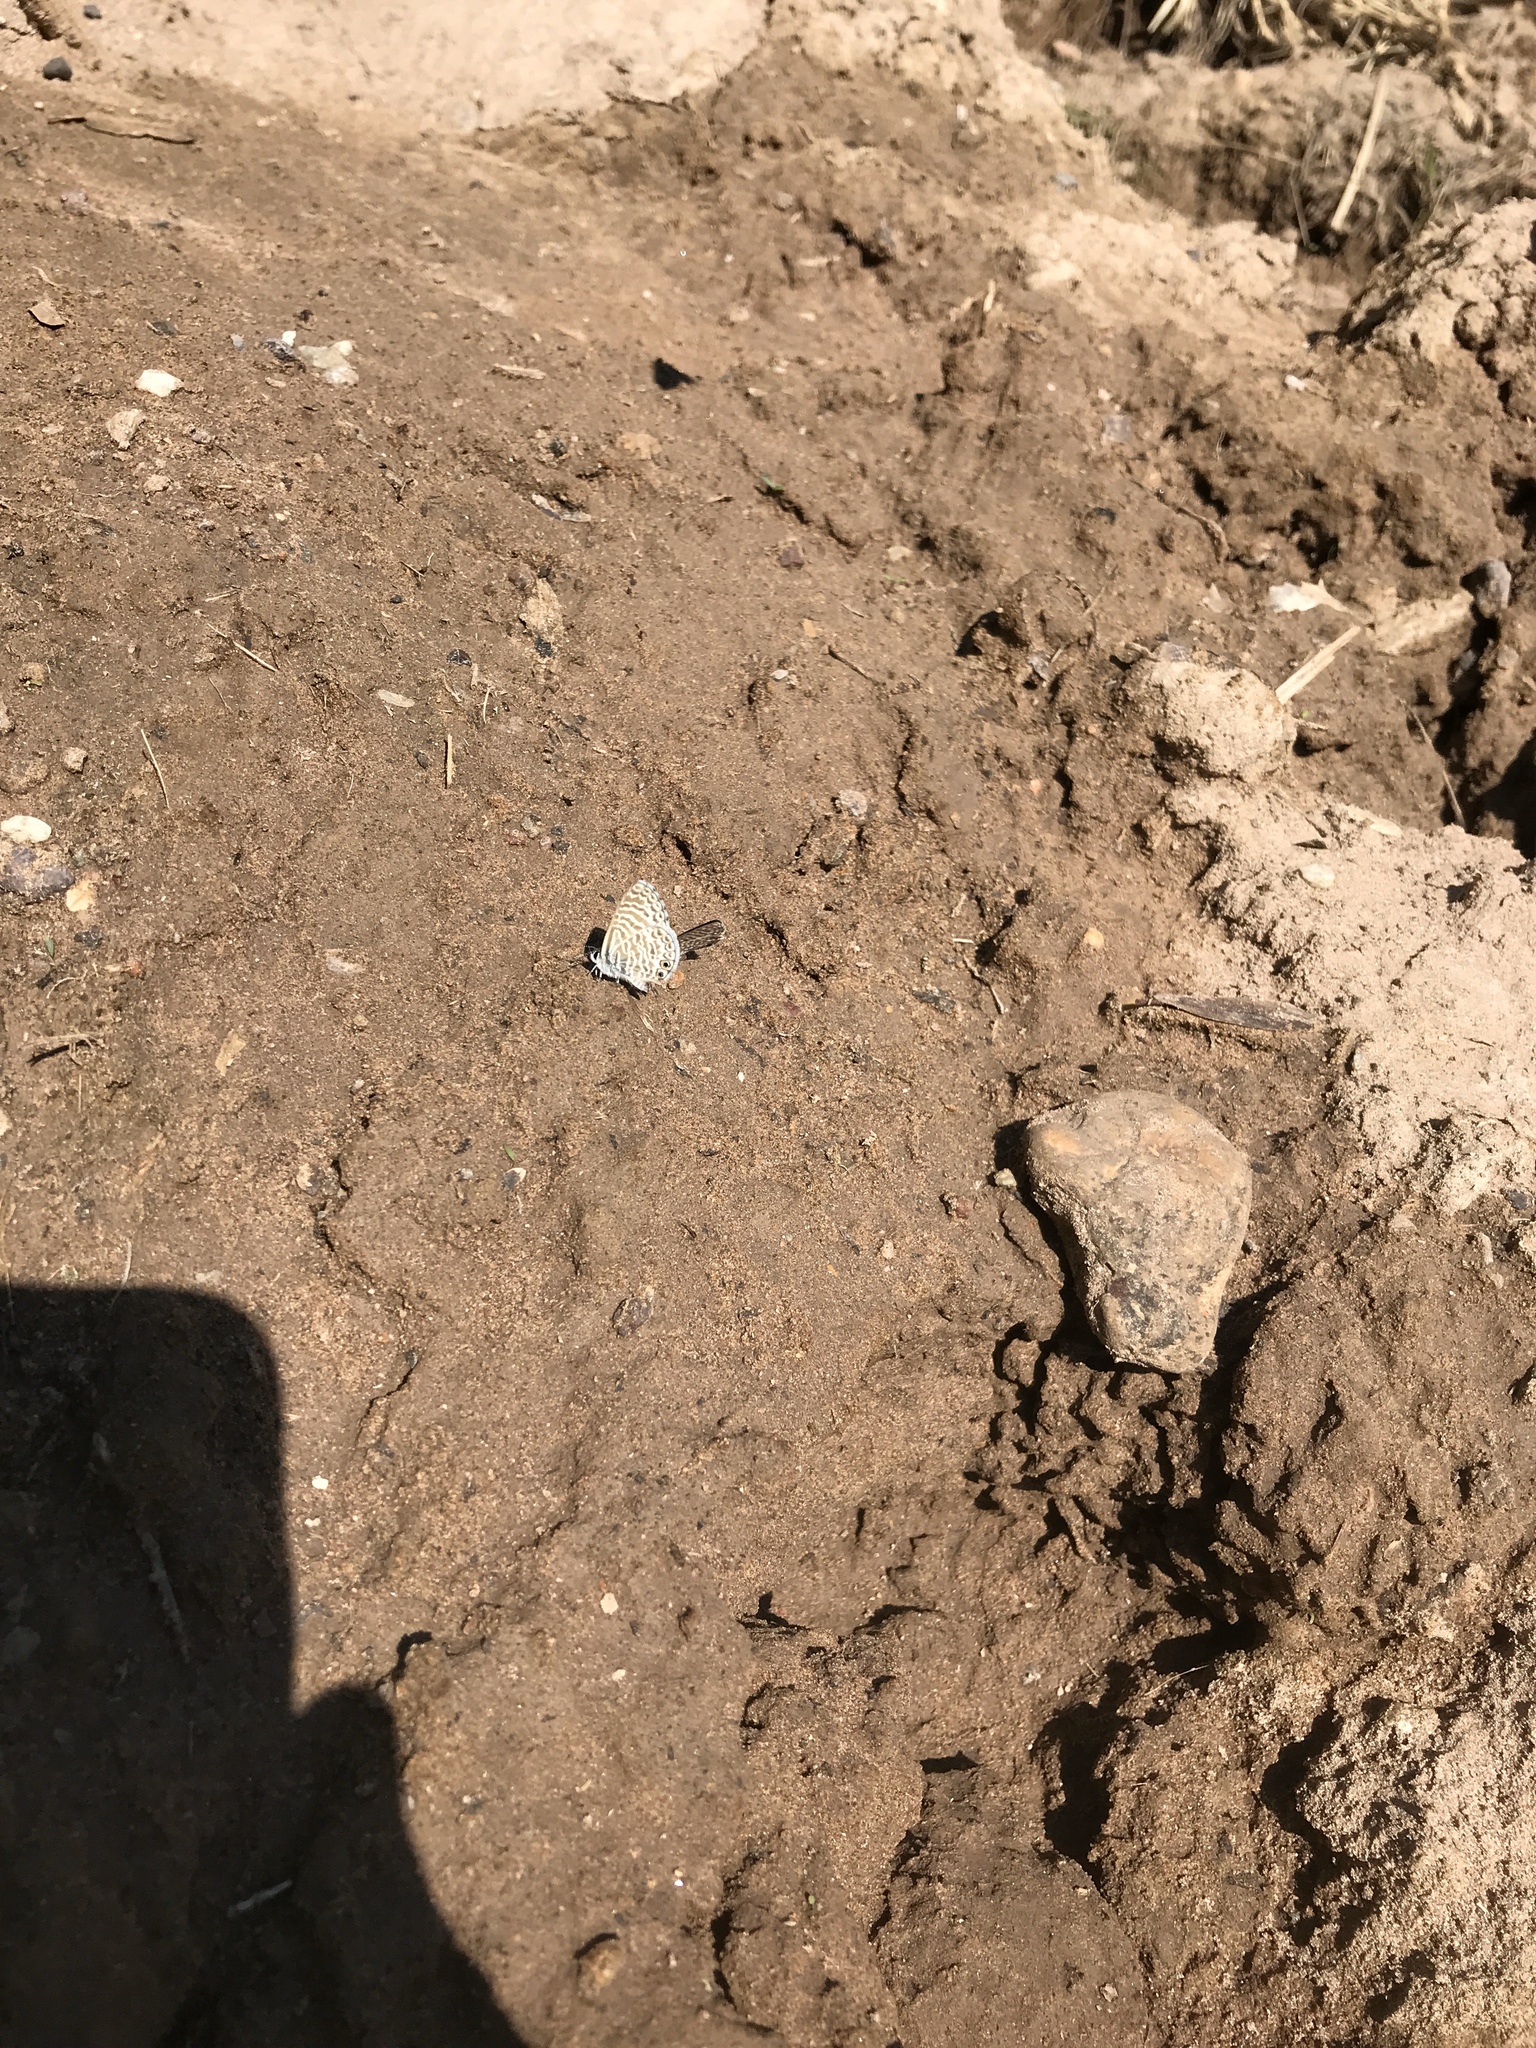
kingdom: Animalia
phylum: Arthropoda
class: Insecta
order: Lepidoptera
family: Lycaenidae
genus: Leptotes
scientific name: Leptotes marina
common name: Marine blue
